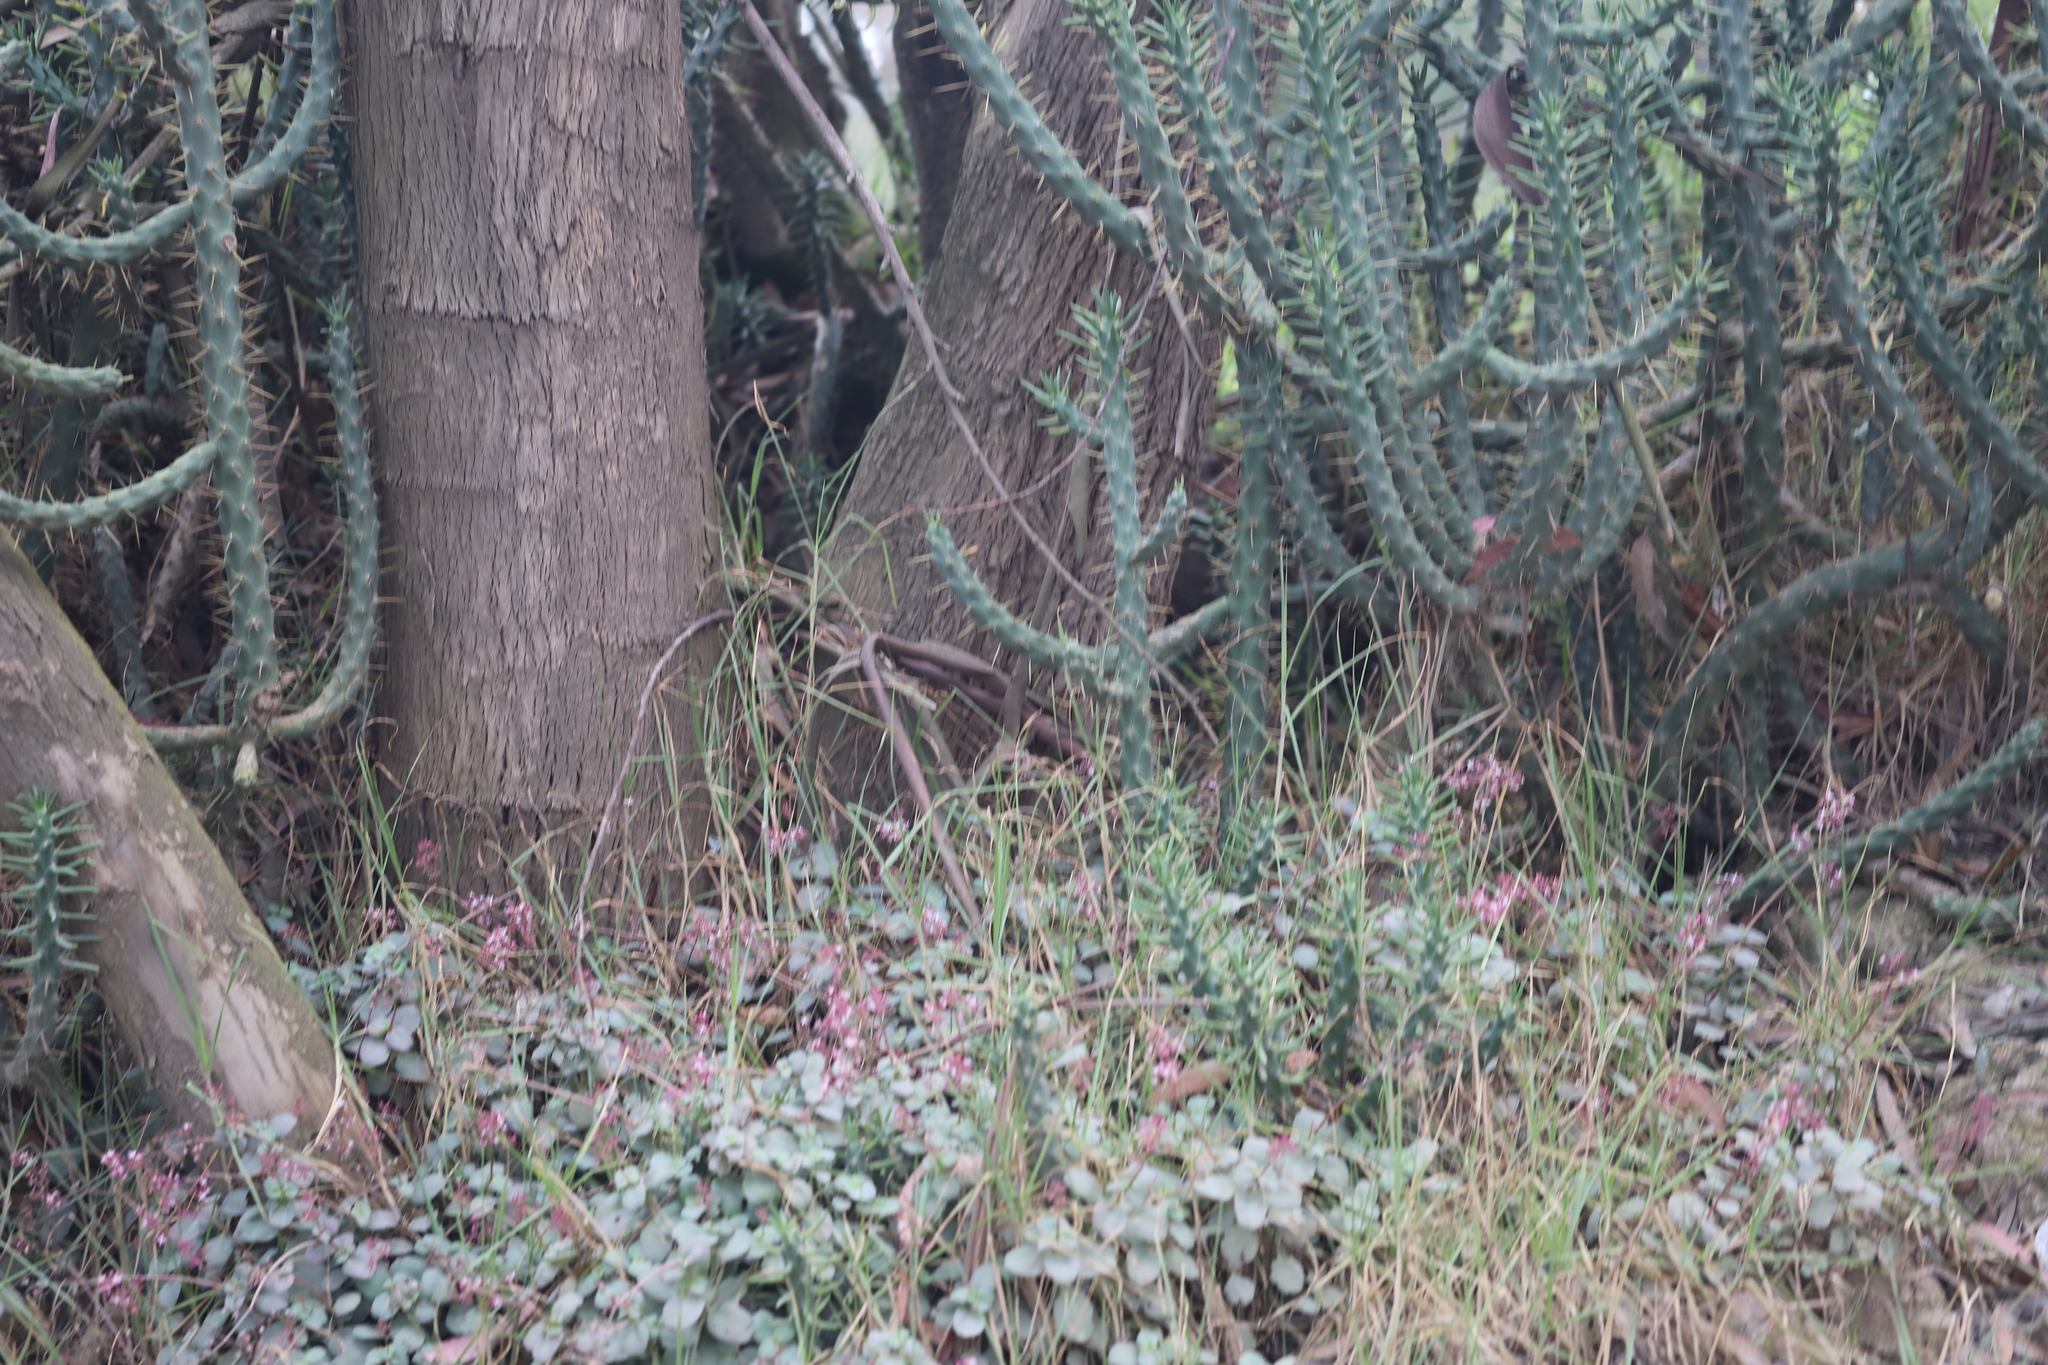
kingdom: Plantae
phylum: Tracheophyta
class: Magnoliopsida
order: Caryophyllales
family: Cactaceae
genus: Austrocylindropuntia
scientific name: Austrocylindropuntia subulata
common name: Eve's needle cactus
